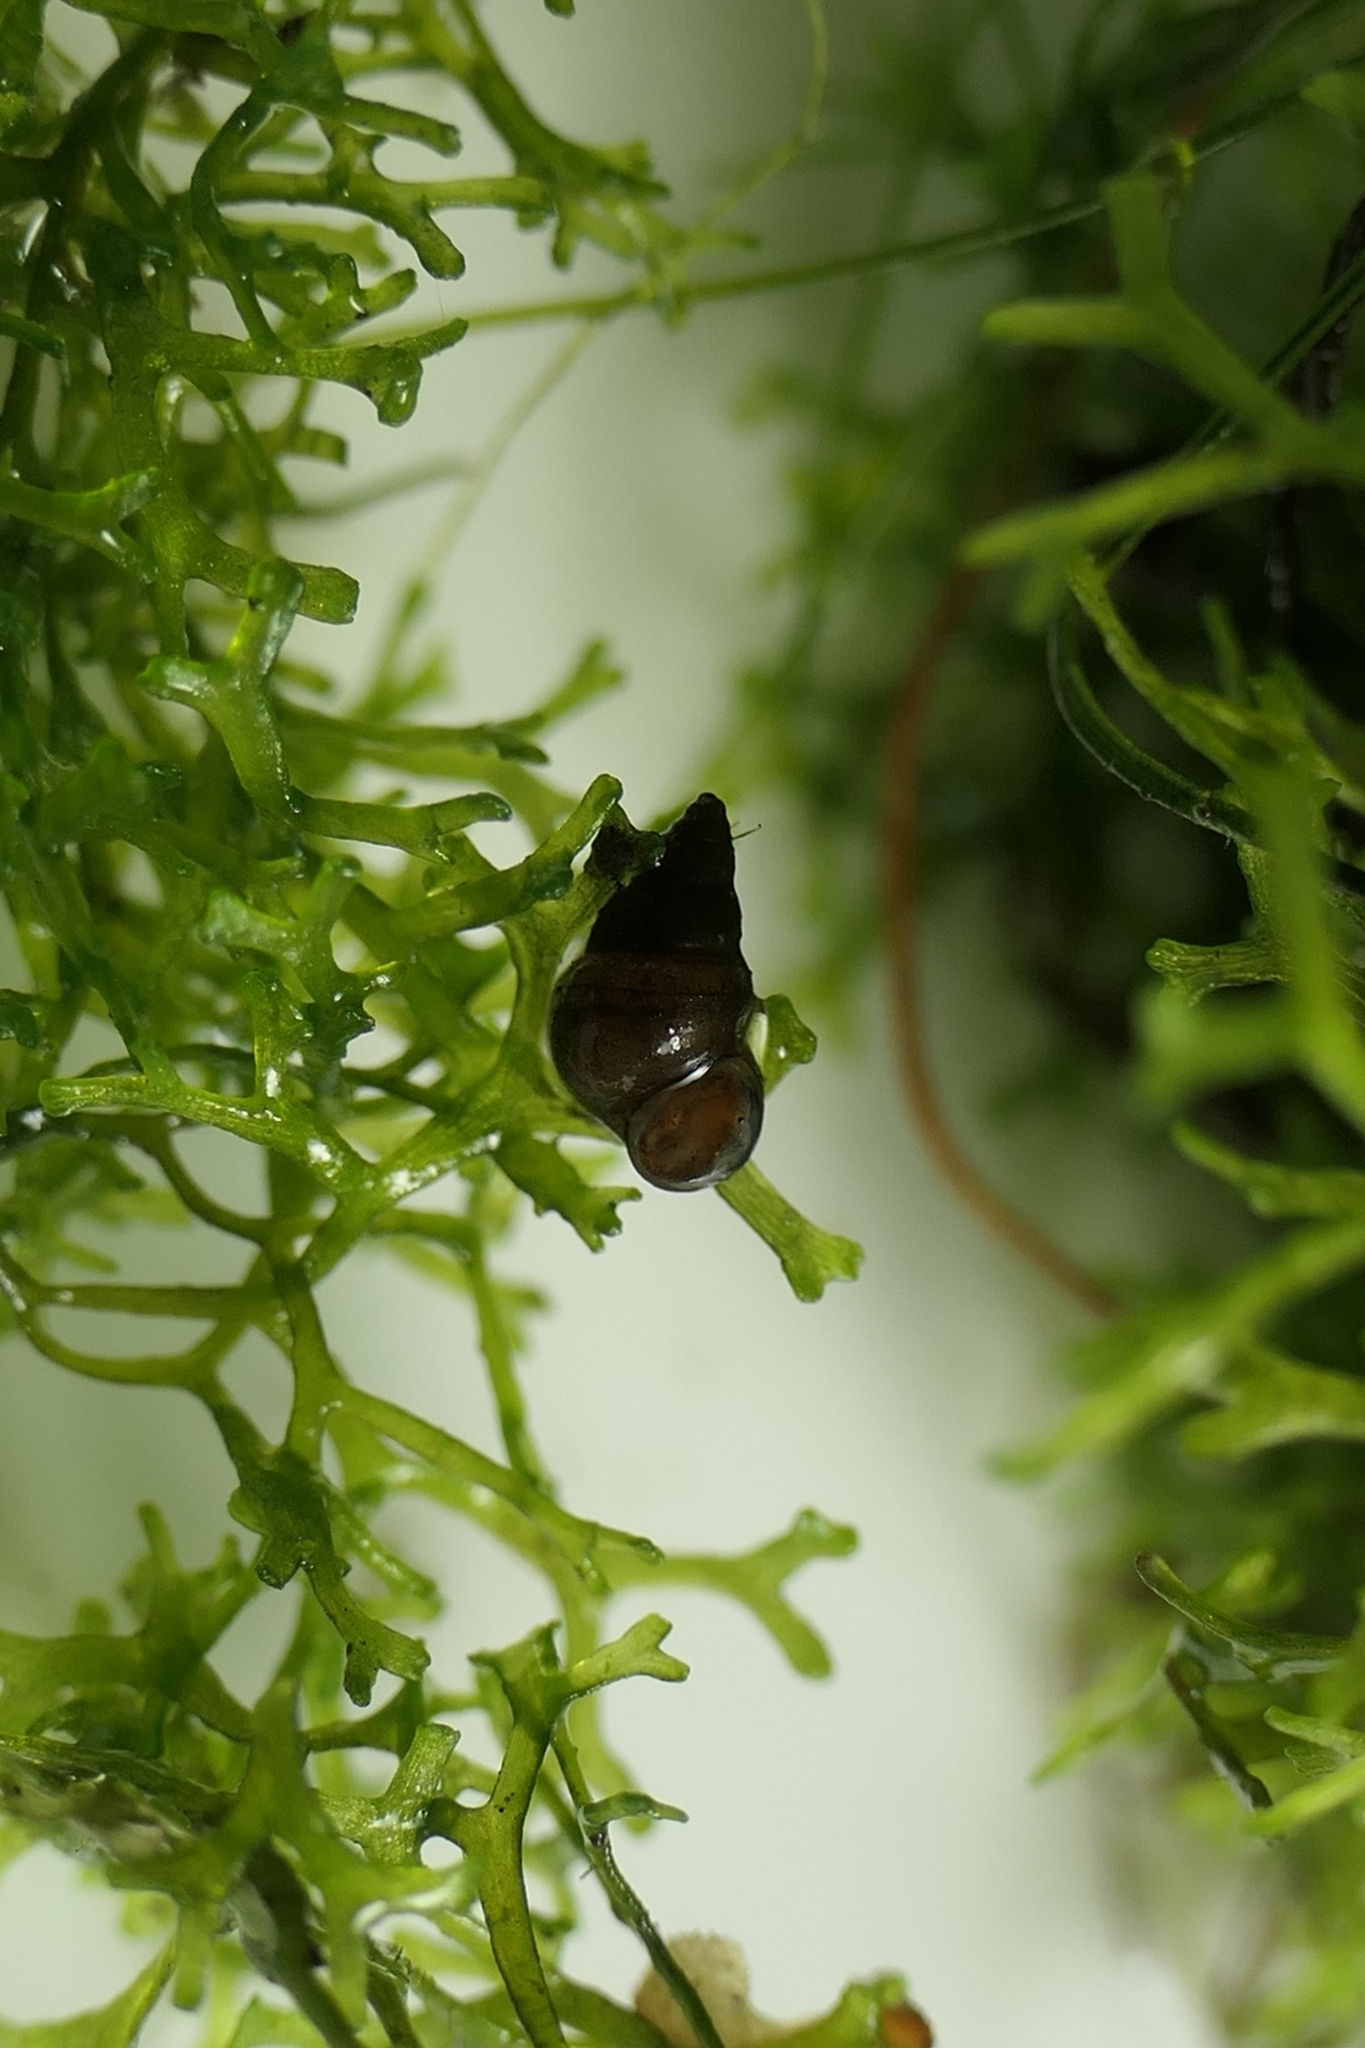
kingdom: Animalia
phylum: Mollusca
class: Gastropoda
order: Littorinimorpha
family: Tateidae
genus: Potamopyrgus
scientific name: Potamopyrgus antipodarum
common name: Jenkins' spire snail
